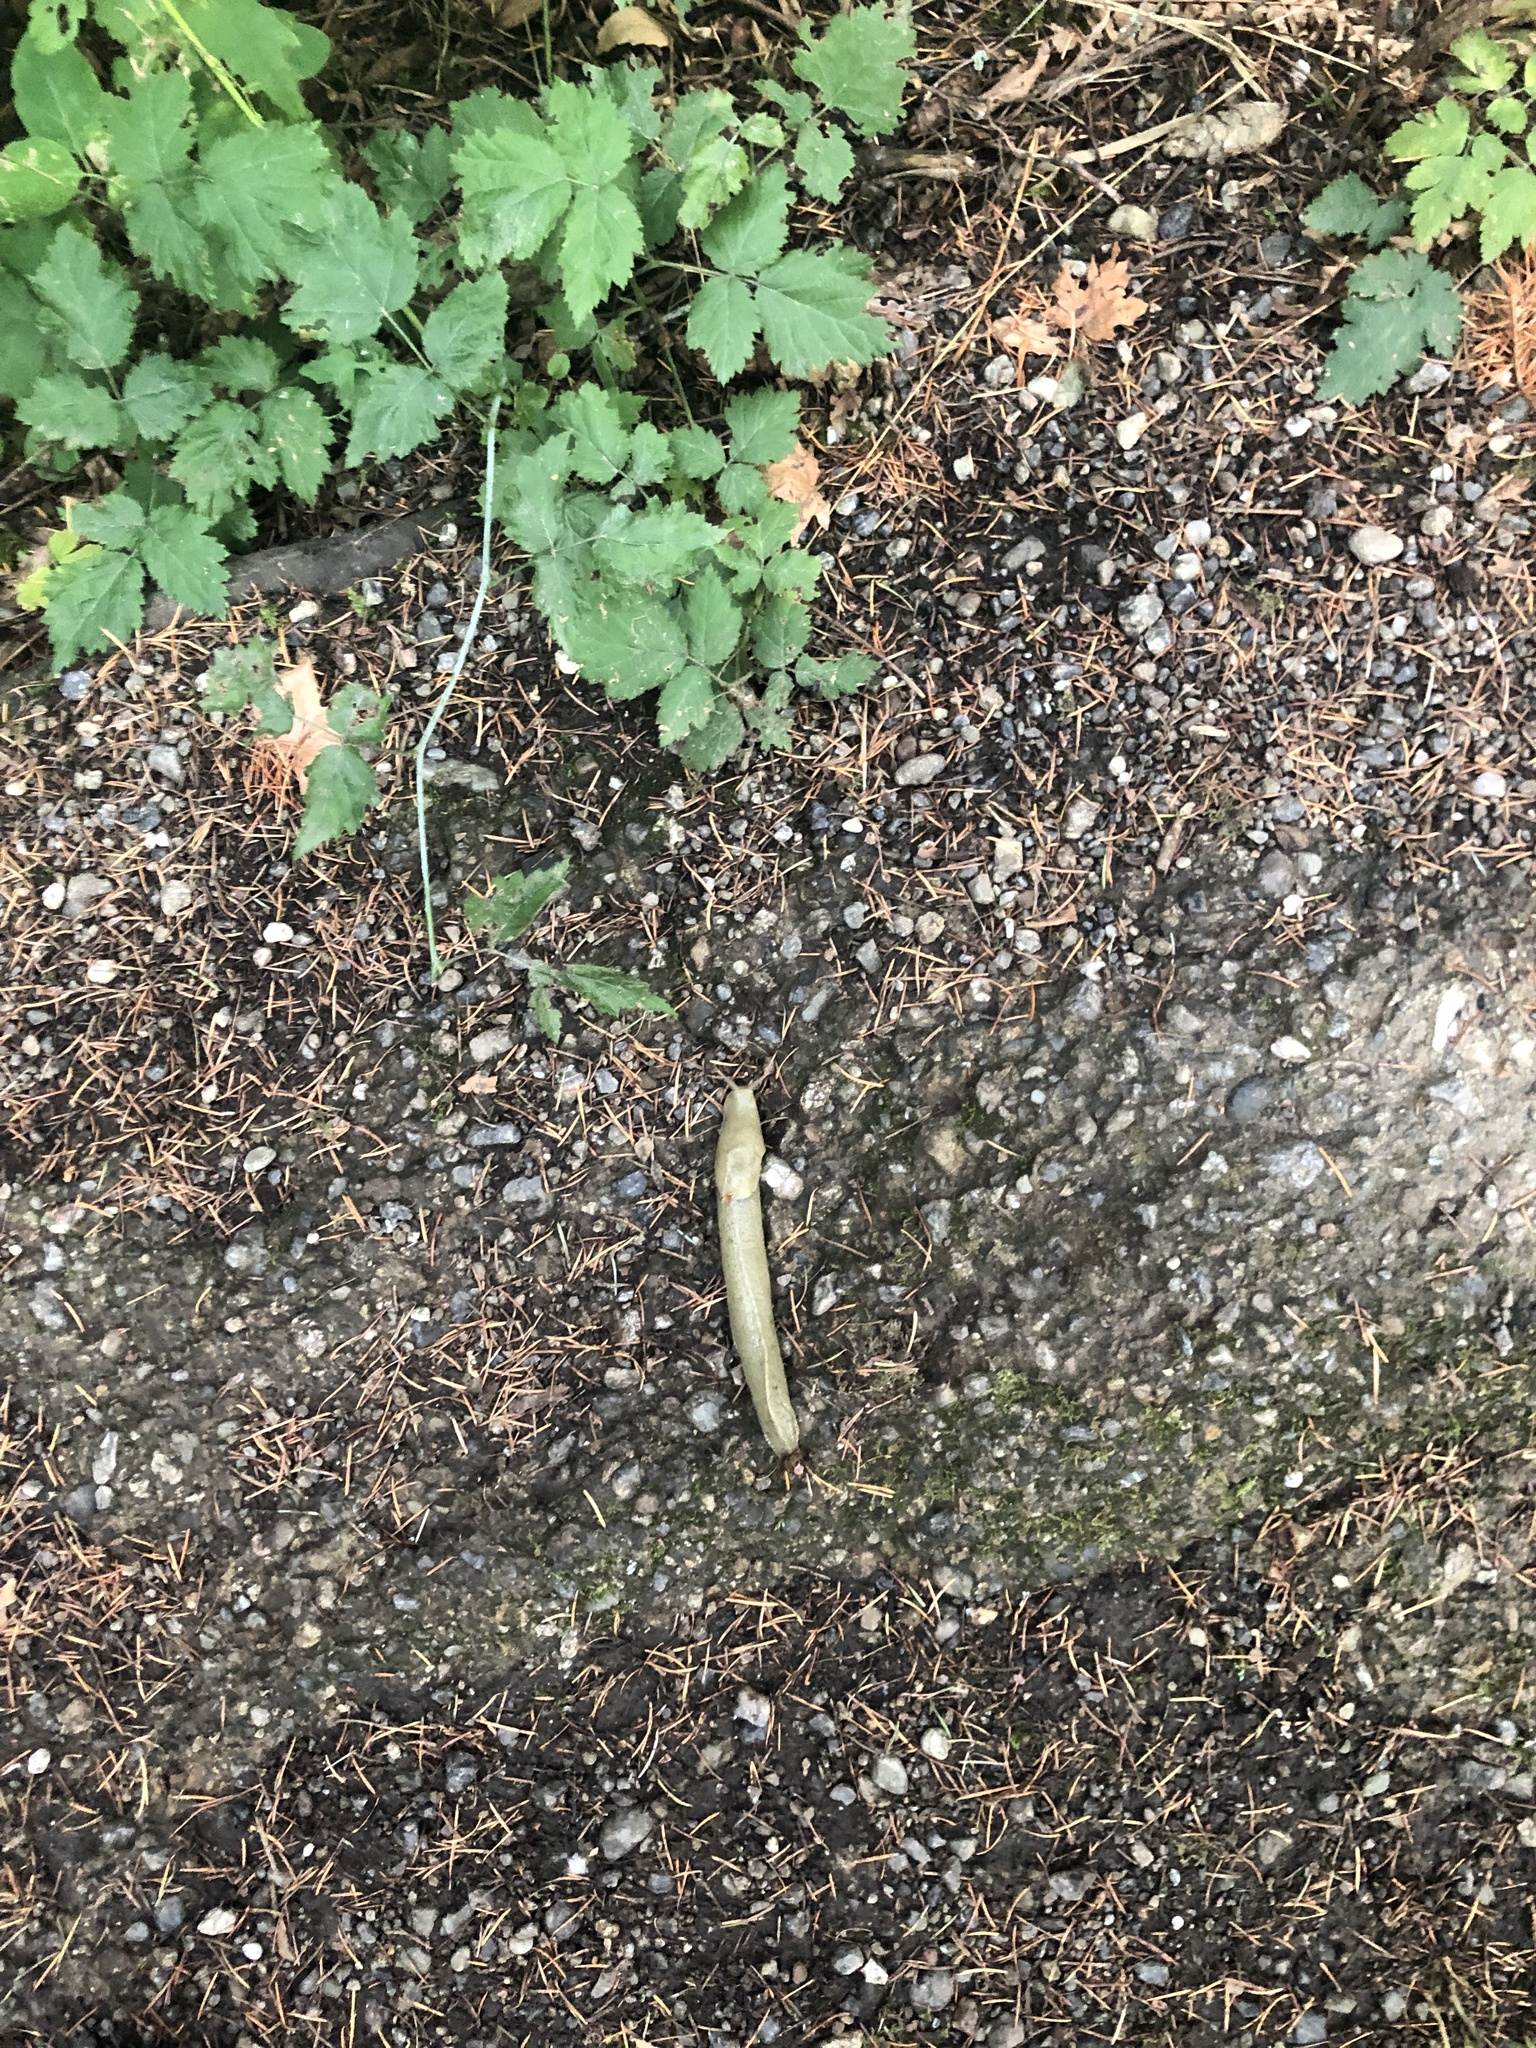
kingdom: Animalia
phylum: Mollusca
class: Gastropoda
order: Stylommatophora
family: Ariolimacidae
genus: Ariolimax
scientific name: Ariolimax columbianus
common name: Pacific banana slug
